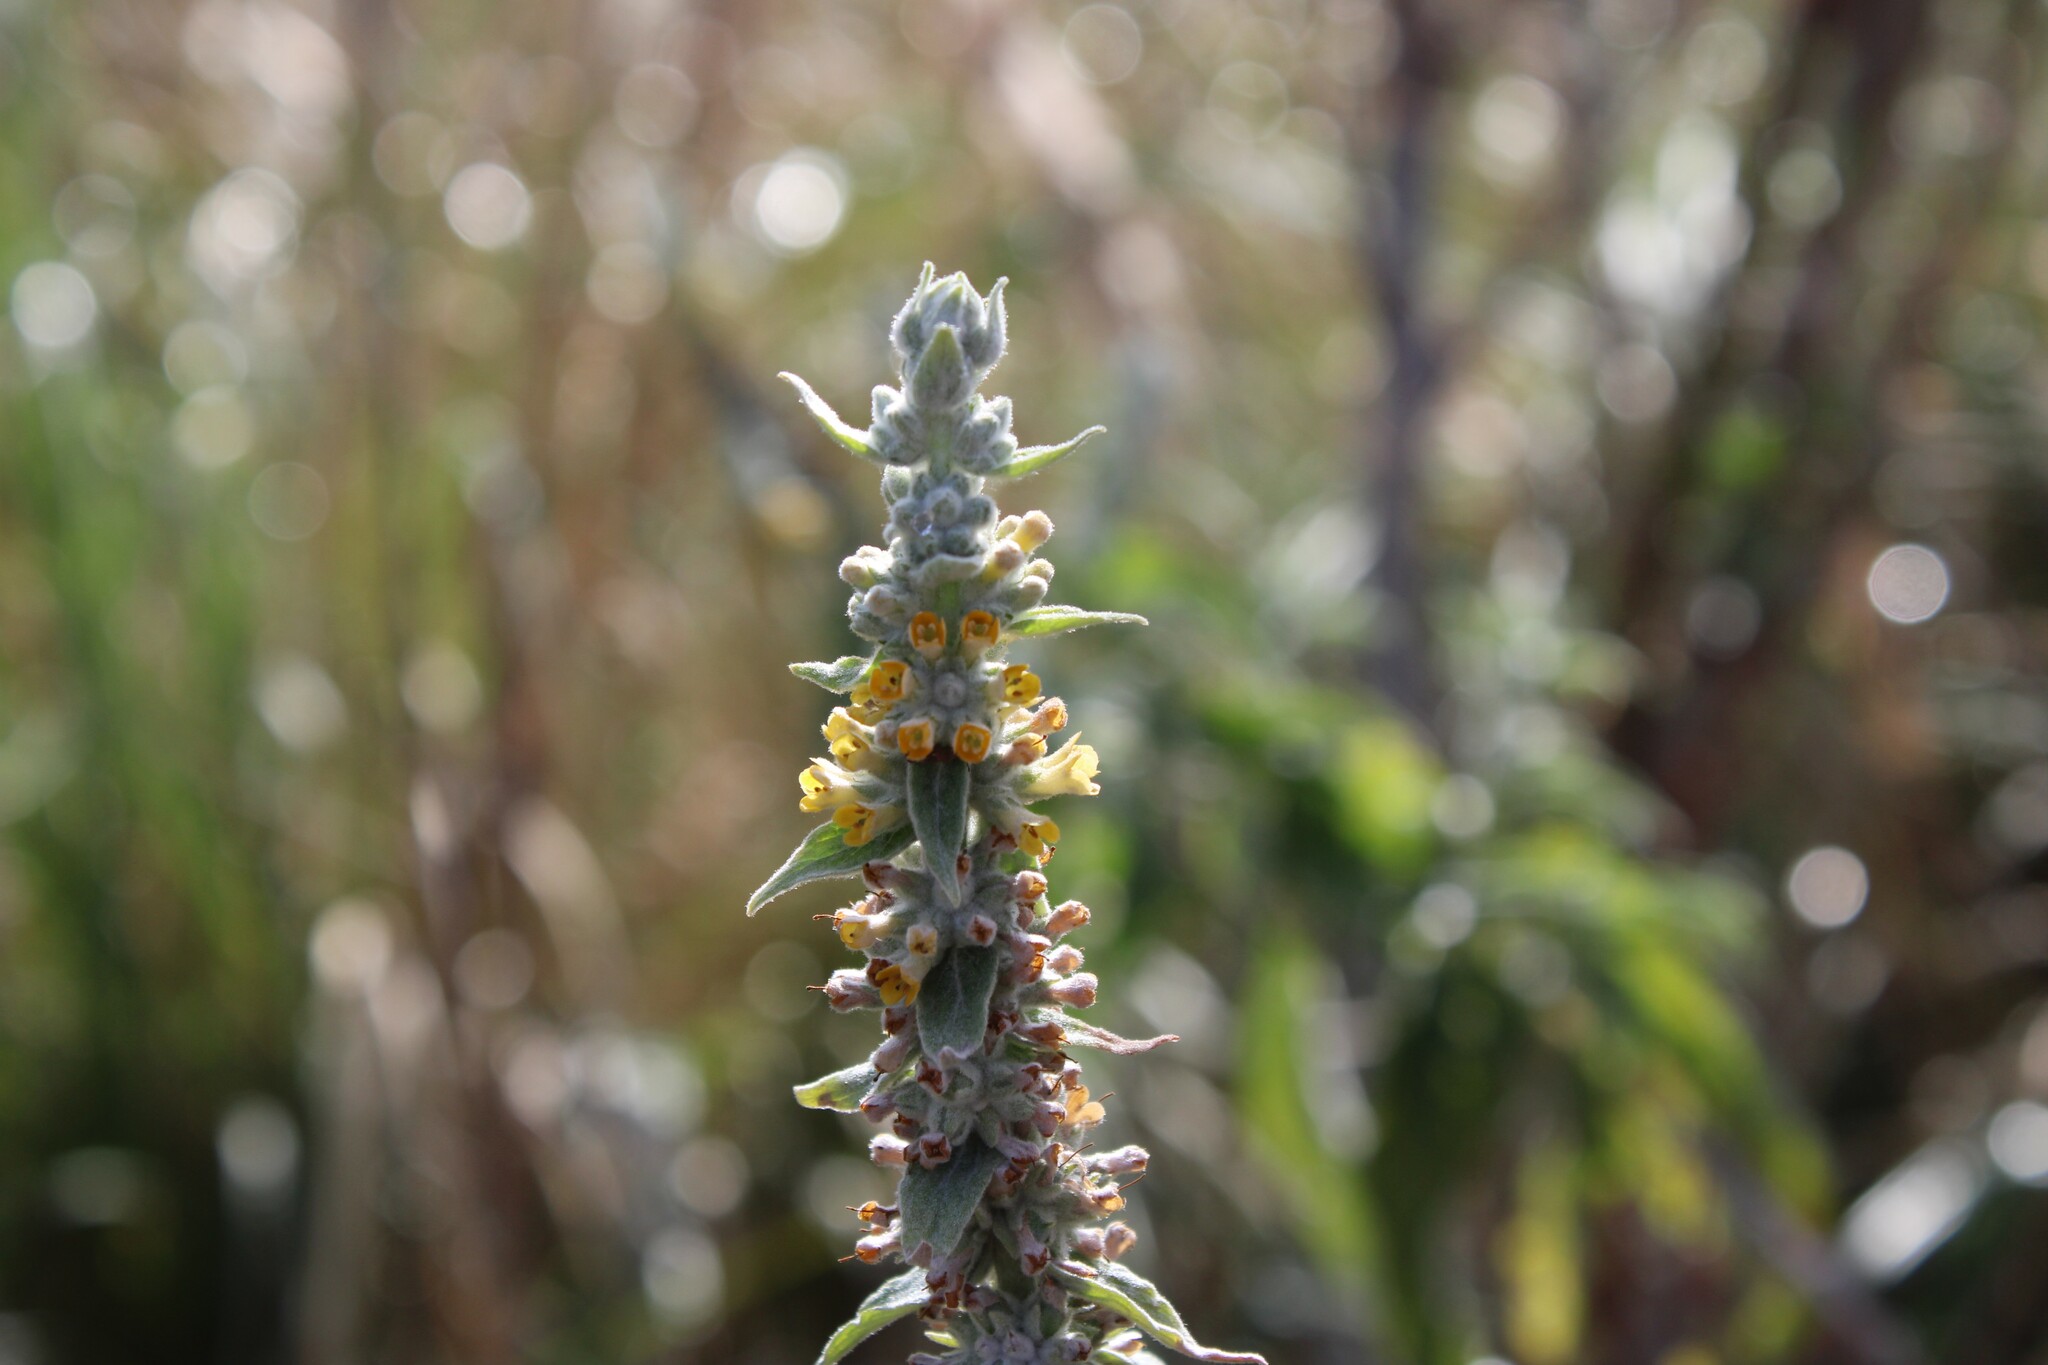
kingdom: Plantae
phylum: Tracheophyta
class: Magnoliopsida
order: Lamiales
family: Scrophulariaceae
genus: Buddleja
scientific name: Buddleja stachyoides
